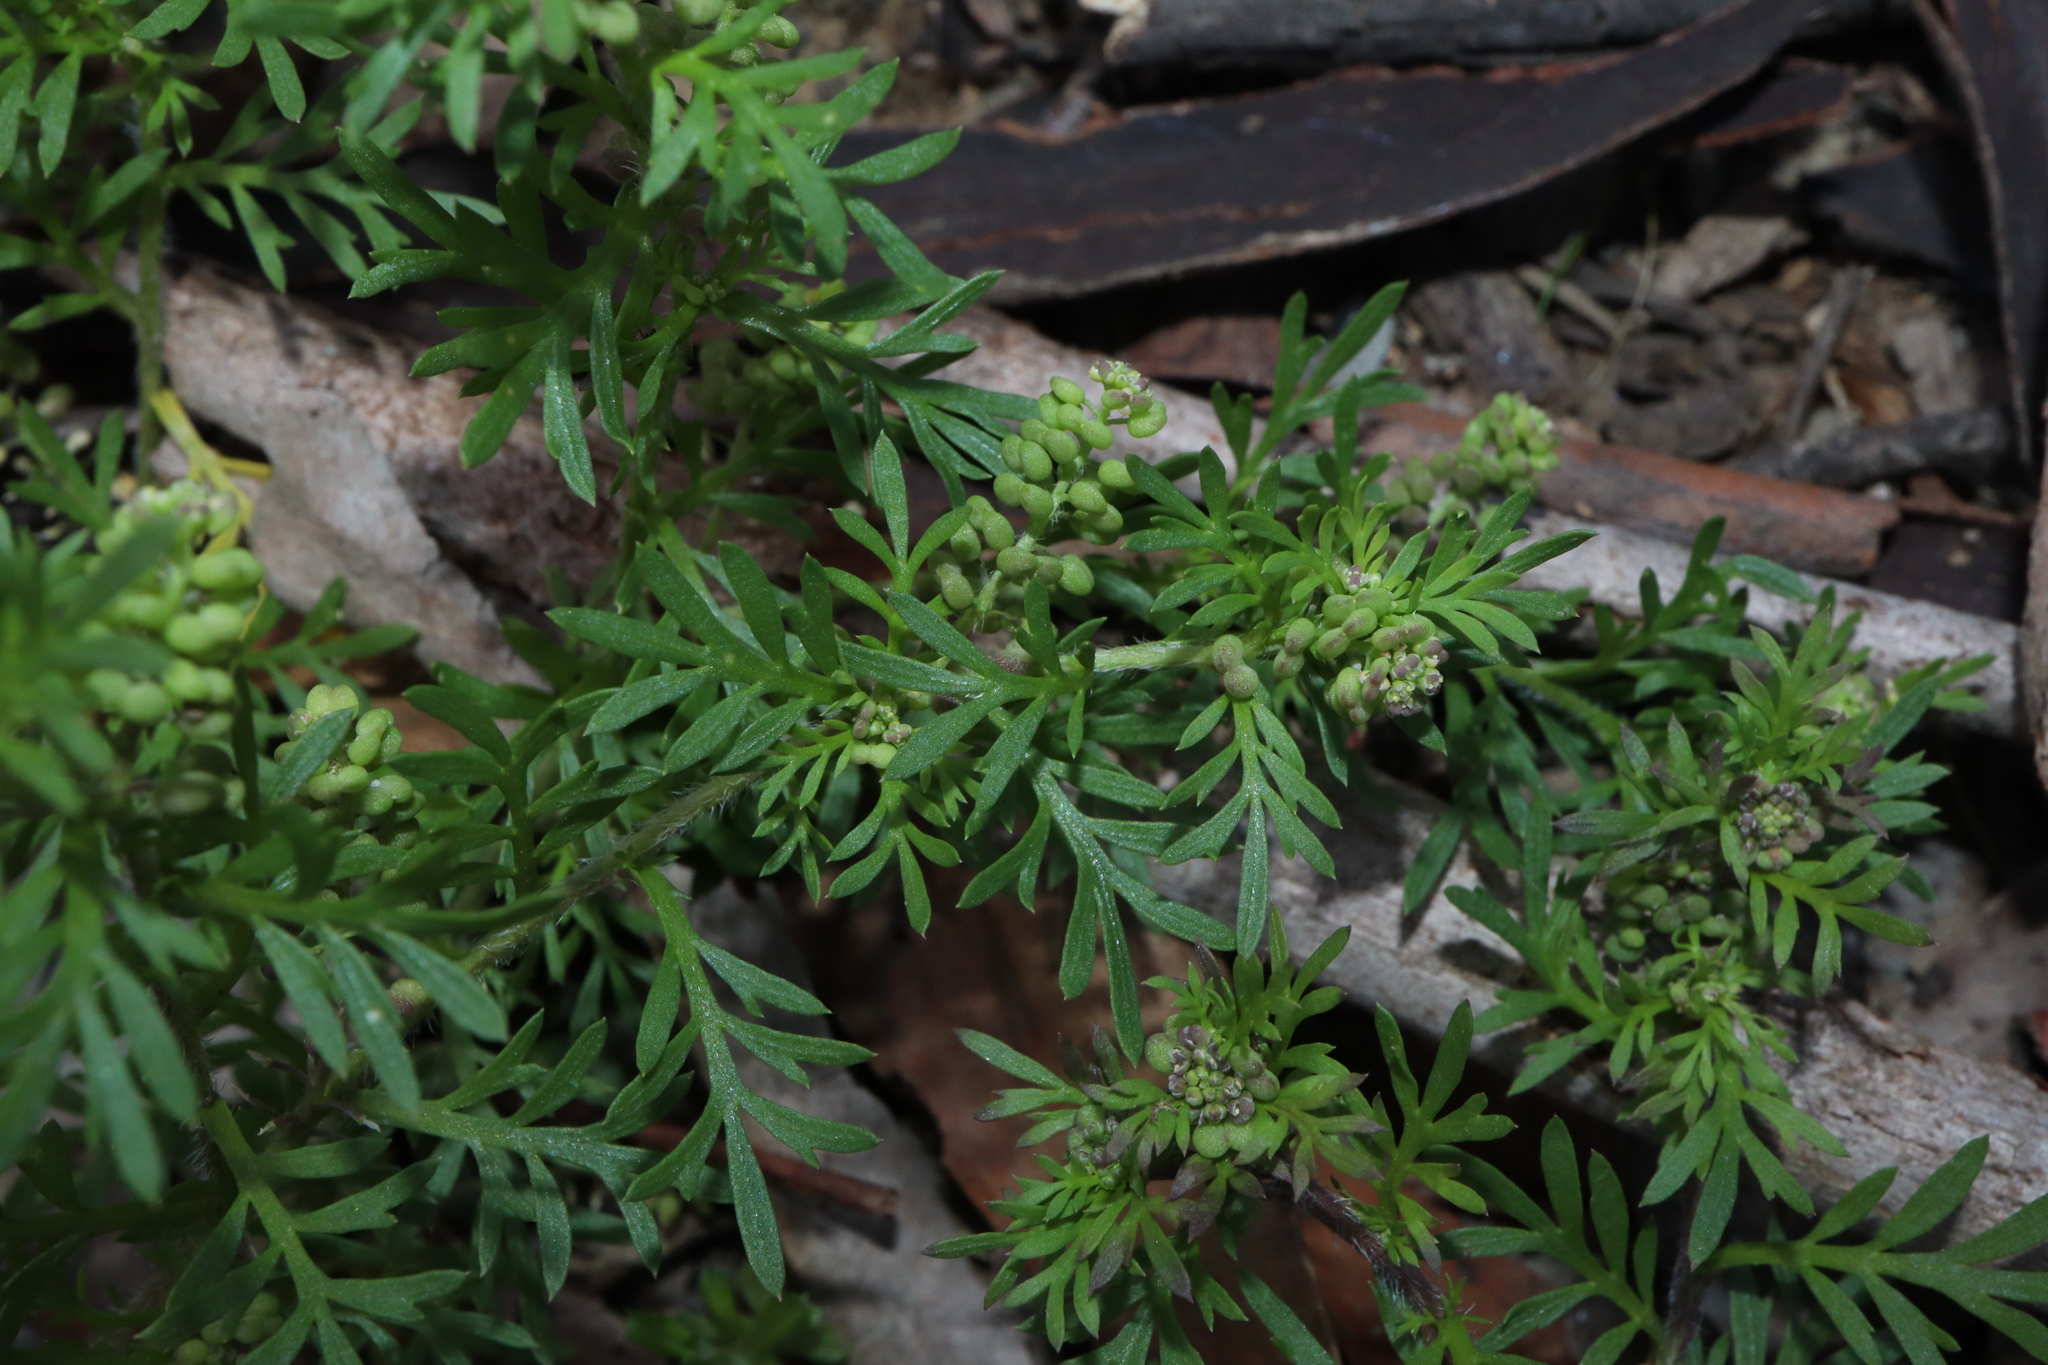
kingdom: Plantae
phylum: Tracheophyta
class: Magnoliopsida
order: Brassicales
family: Brassicaceae
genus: Lepidium
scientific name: Lepidium didymum
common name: Lesser swinecress
